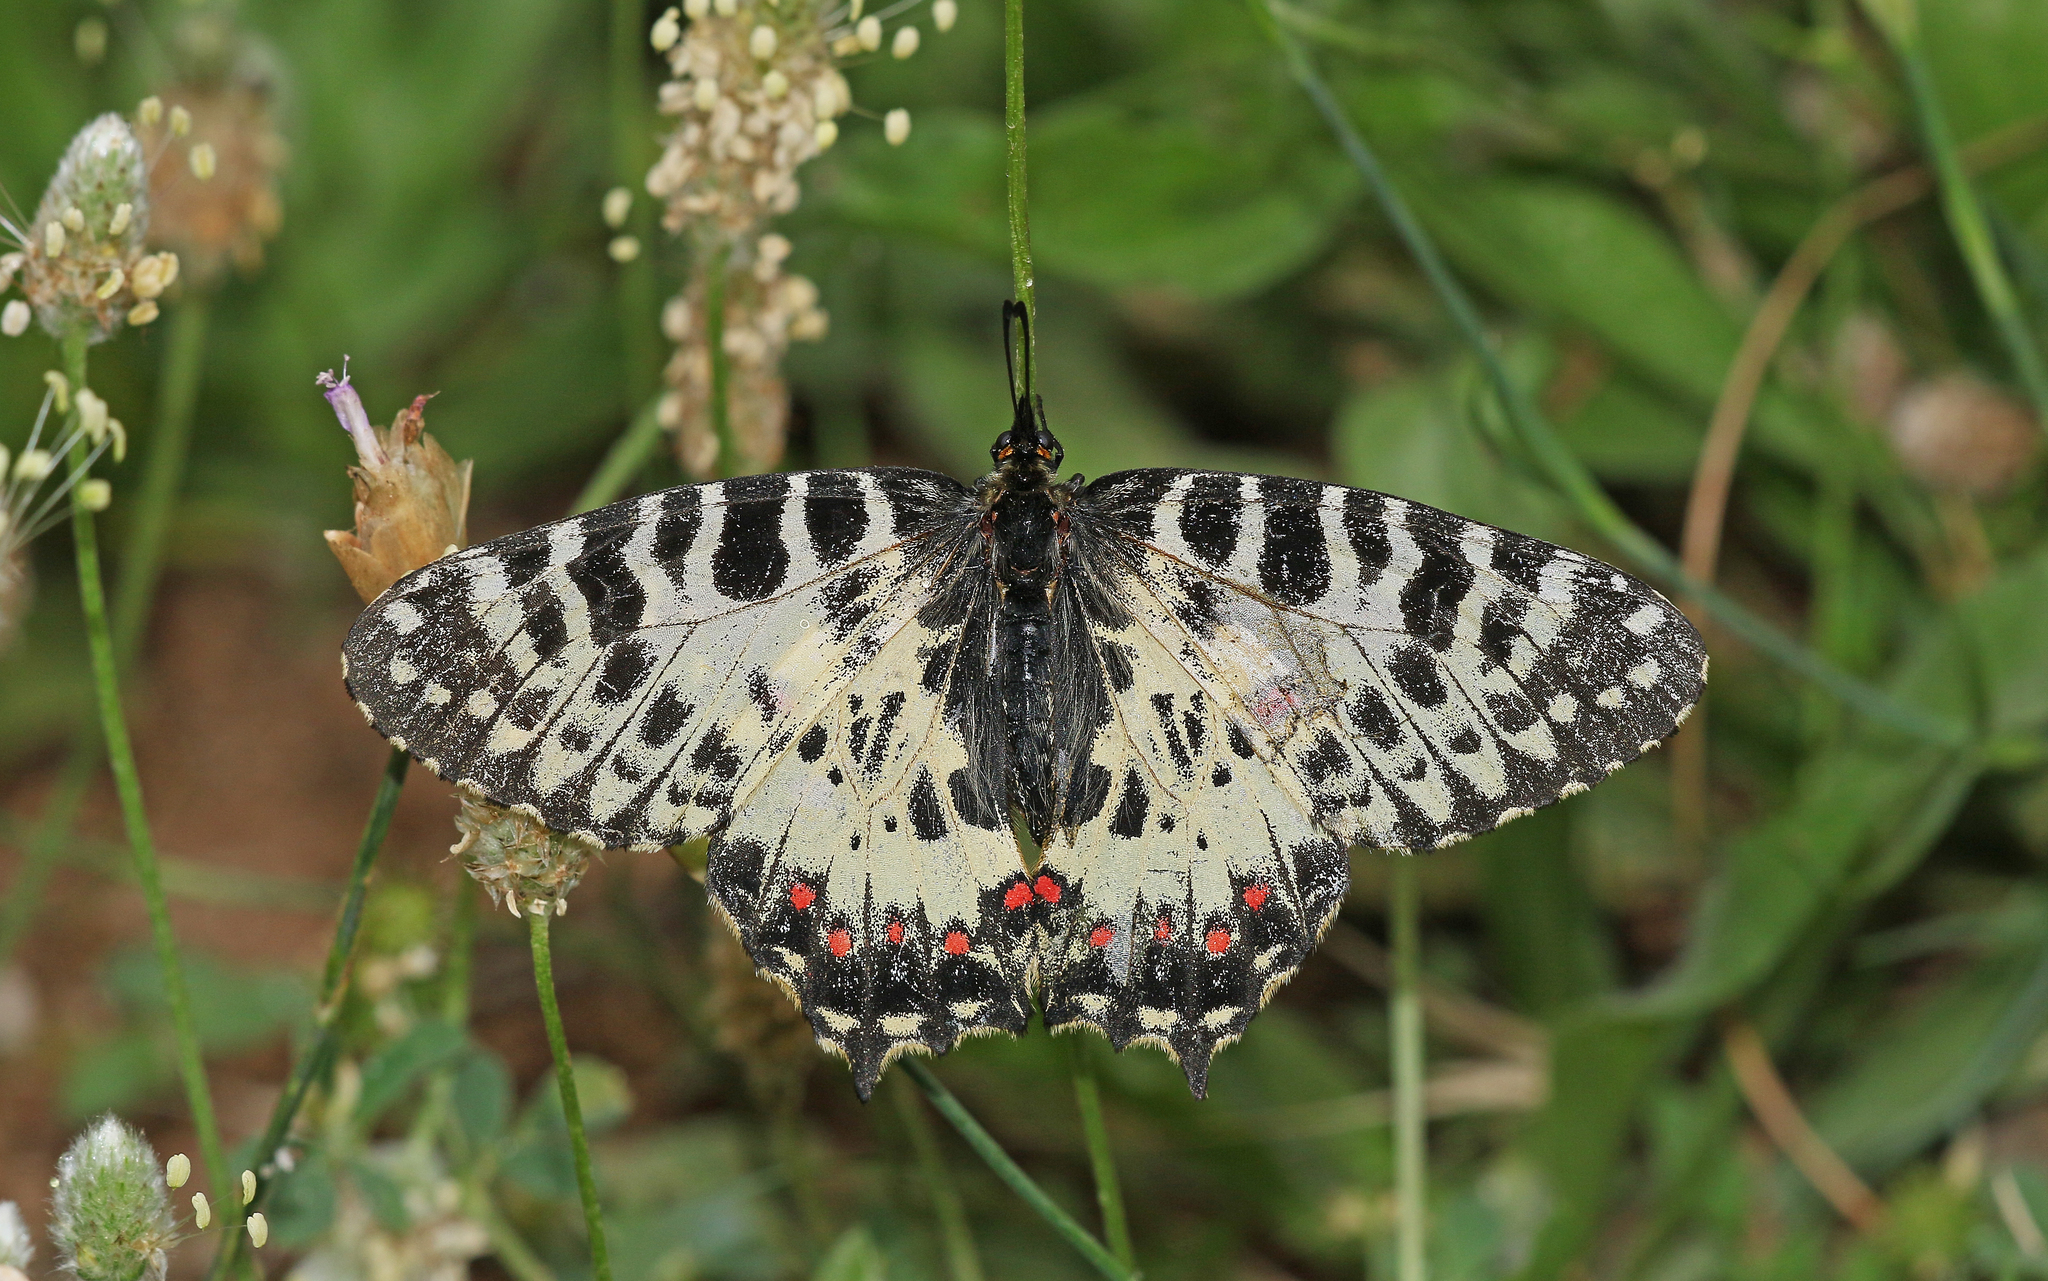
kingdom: Animalia
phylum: Arthropoda
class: Insecta
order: Lepidoptera
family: Papilionidae
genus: Zerynthia
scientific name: Zerynthia cerisy
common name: Eastern festoon
